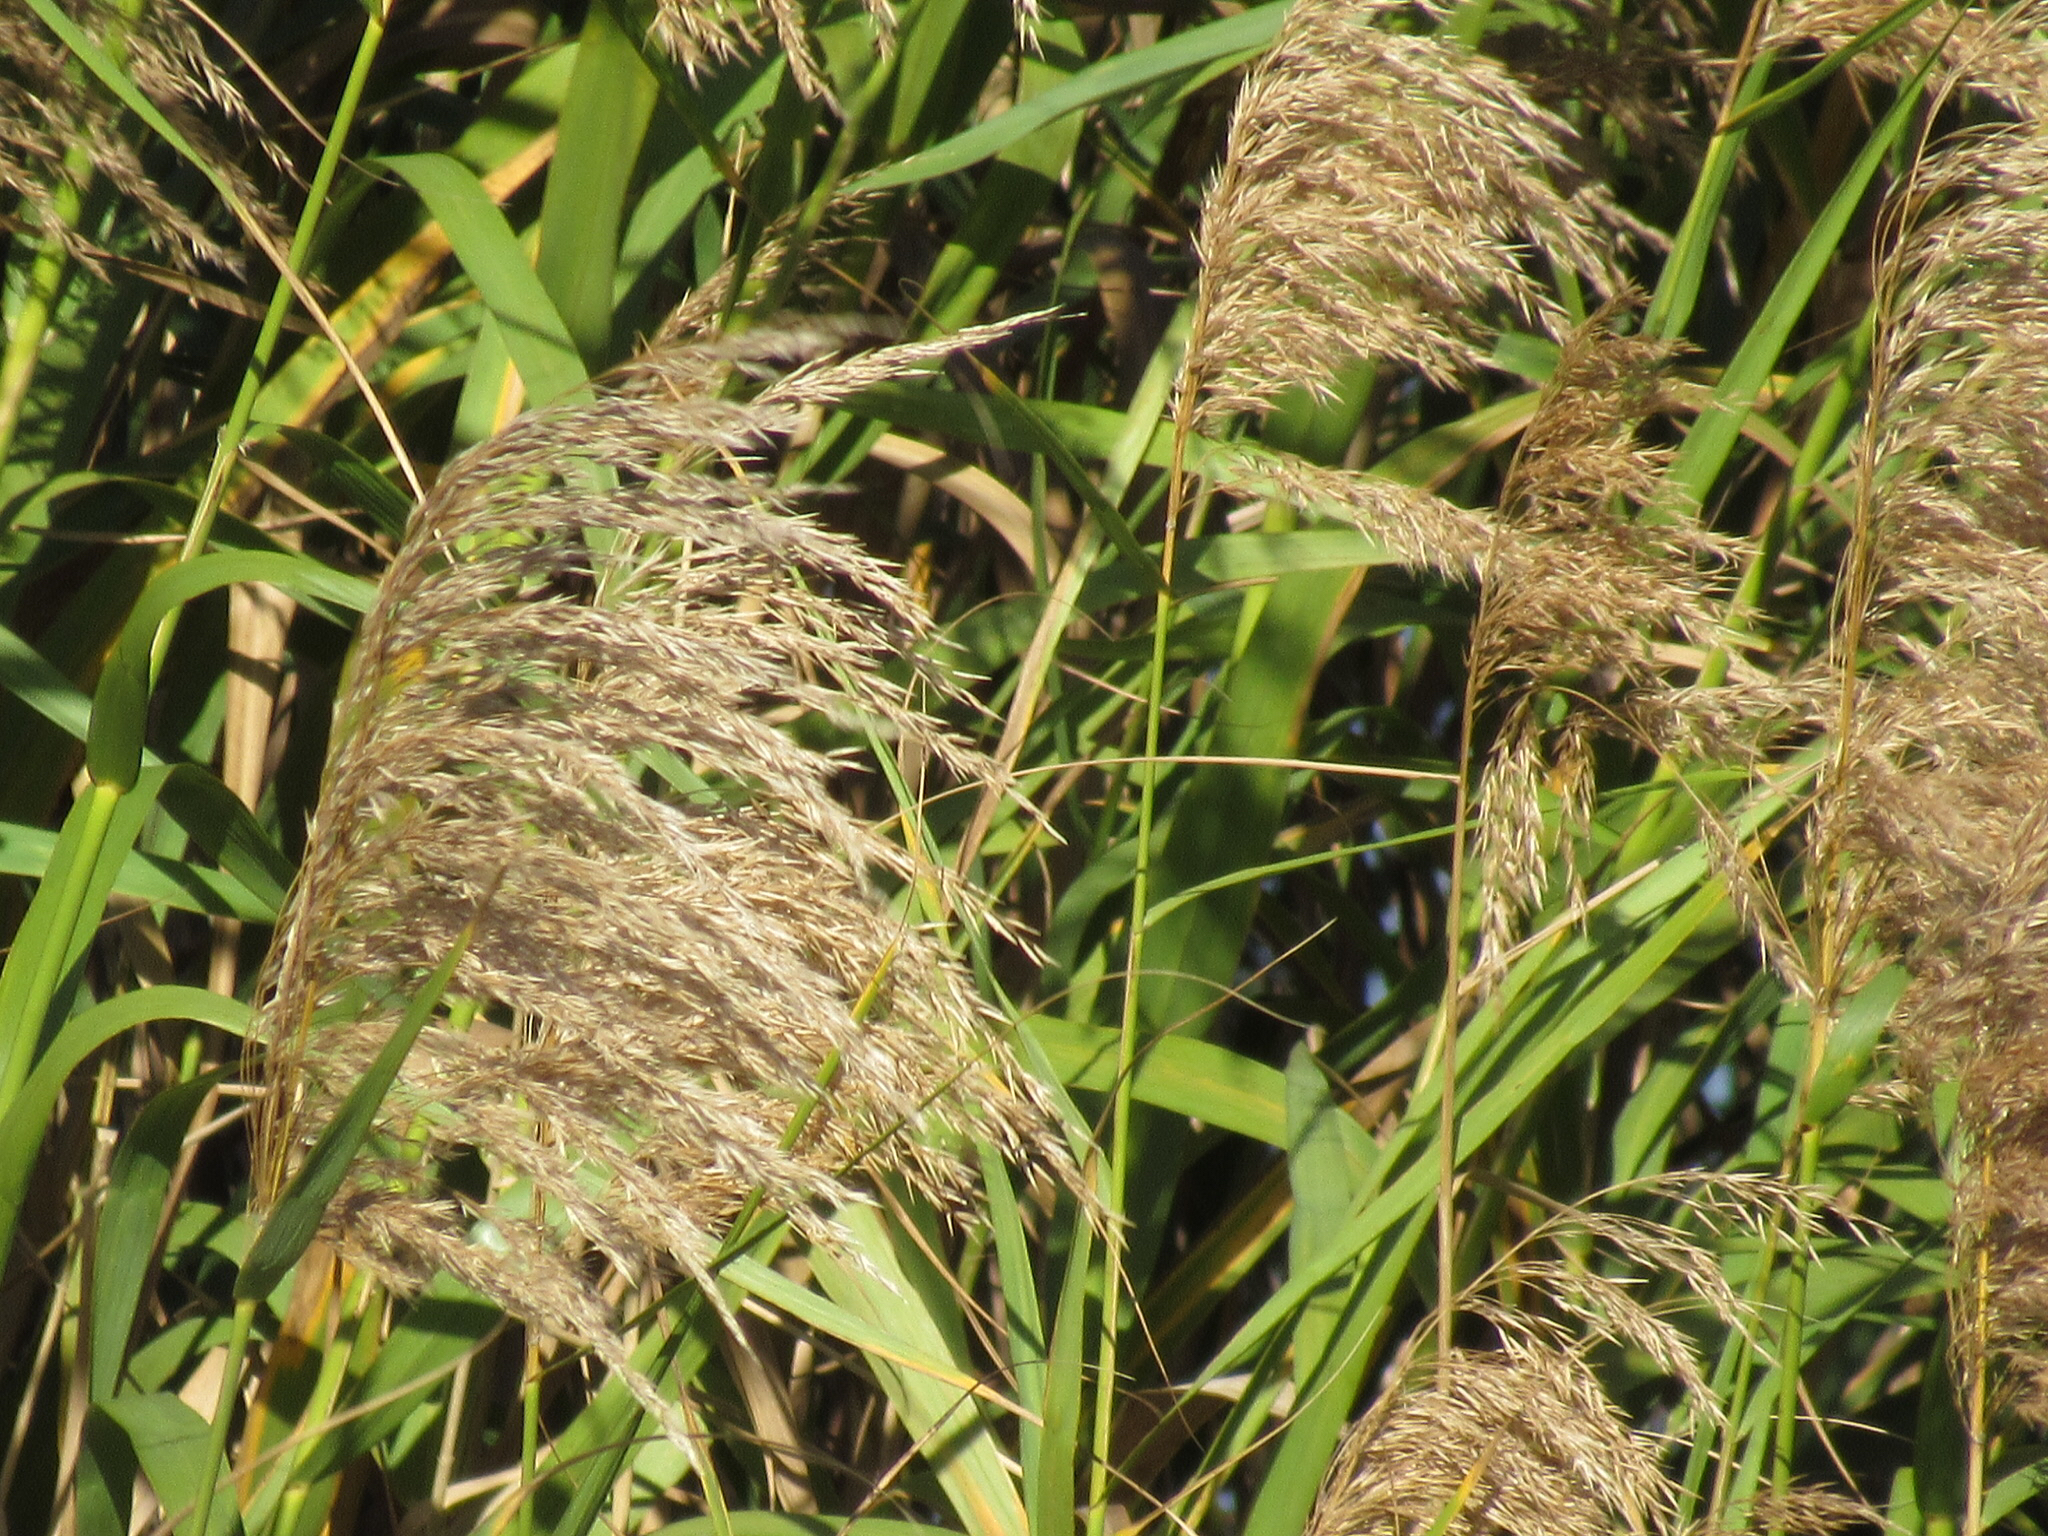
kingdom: Plantae
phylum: Tracheophyta
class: Liliopsida
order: Poales
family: Poaceae
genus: Phragmites
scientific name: Phragmites australis
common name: Common reed
